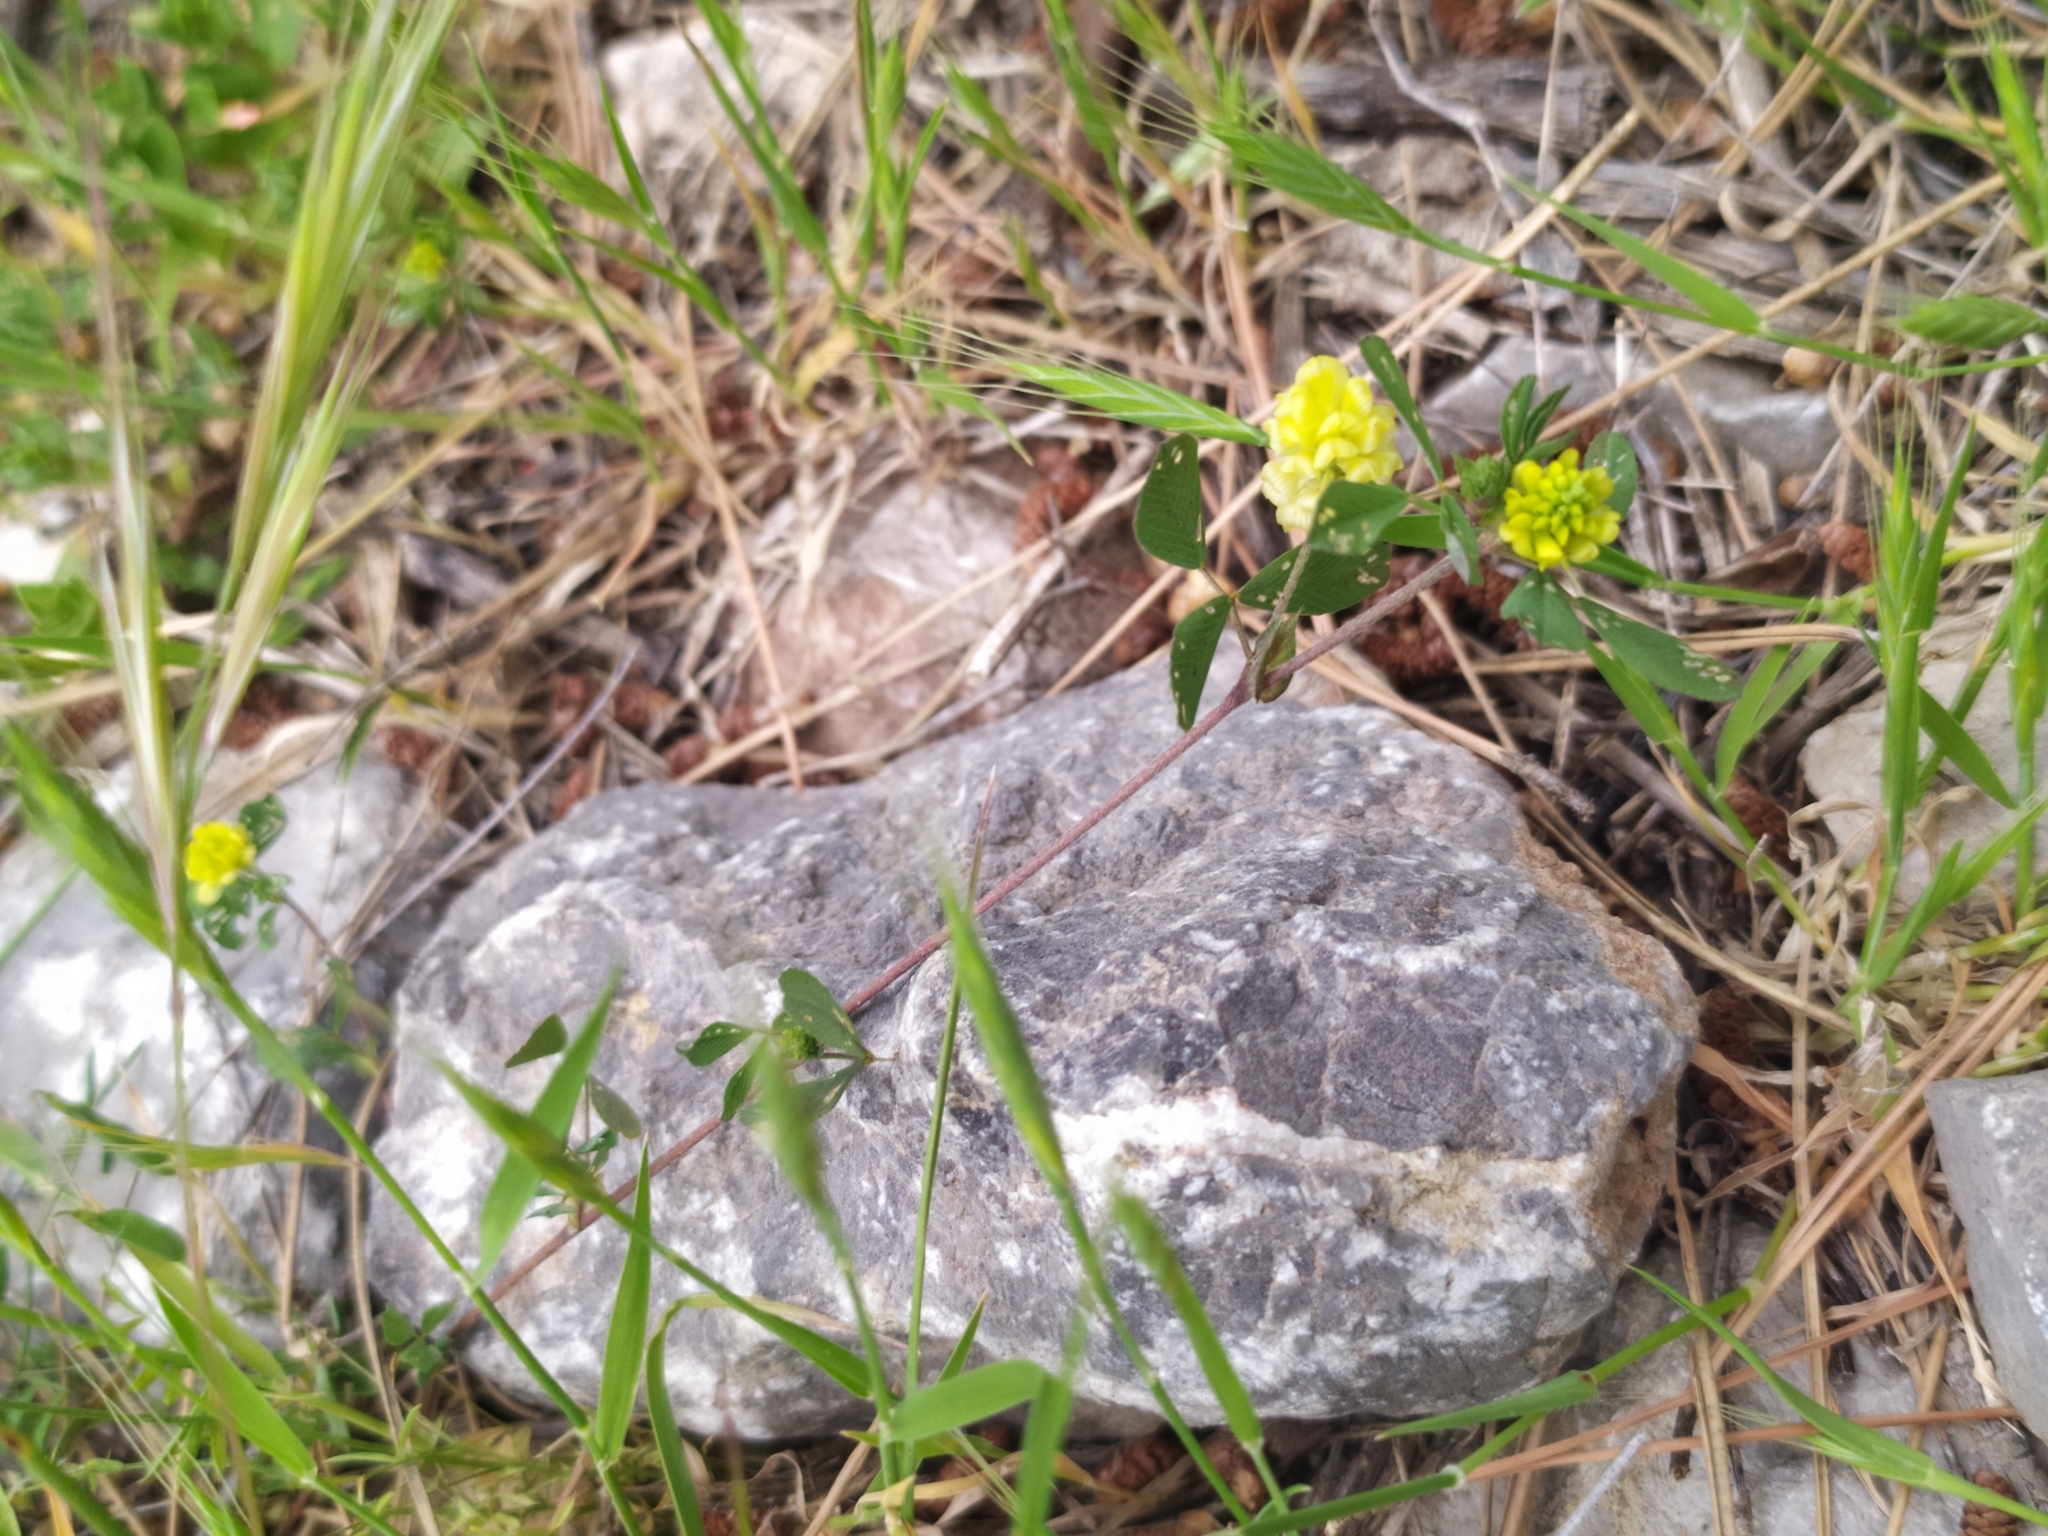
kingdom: Plantae
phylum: Tracheophyta
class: Magnoliopsida
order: Fabales
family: Fabaceae
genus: Trifolium
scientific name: Trifolium campestre
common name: Field clover
